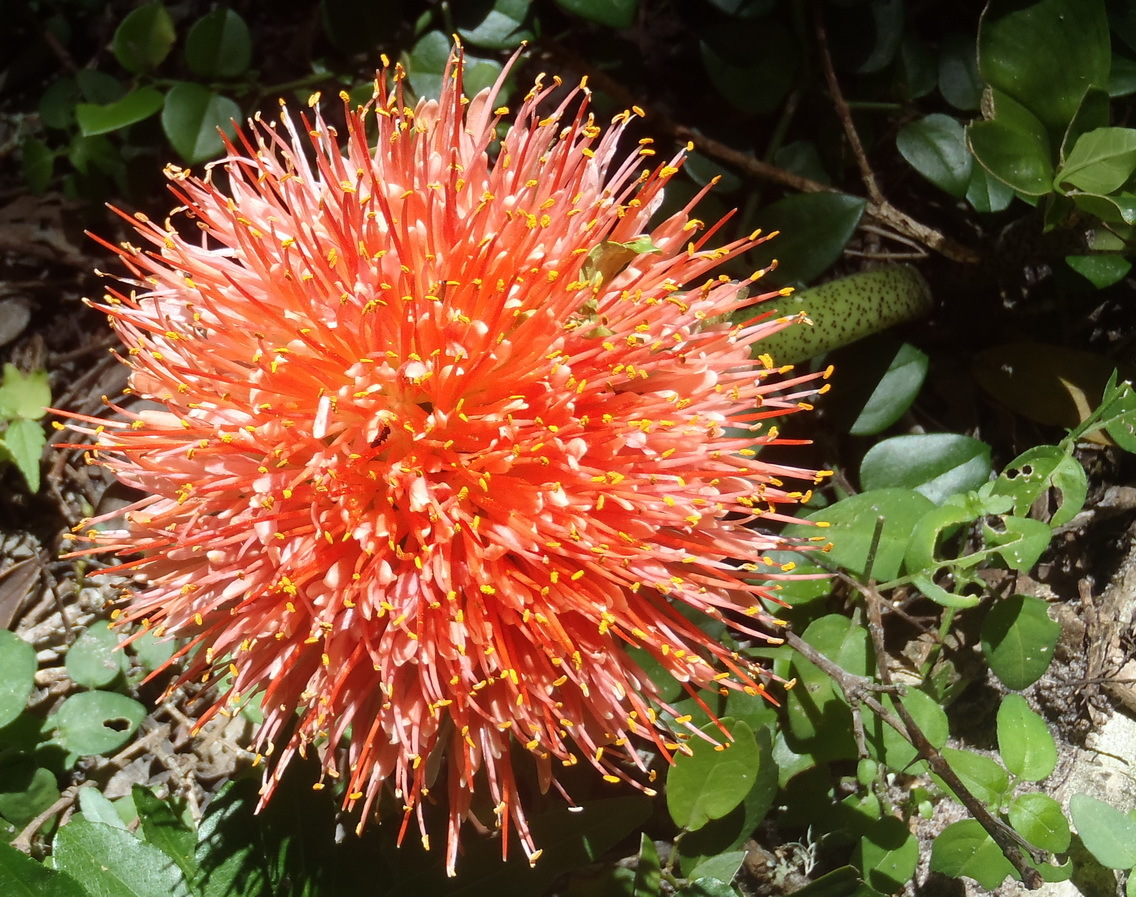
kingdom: Plantae
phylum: Tracheophyta
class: Liliopsida
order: Asparagales
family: Amaryllidaceae
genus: Scadoxus
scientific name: Scadoxus puniceus
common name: Royal-paintbrush
